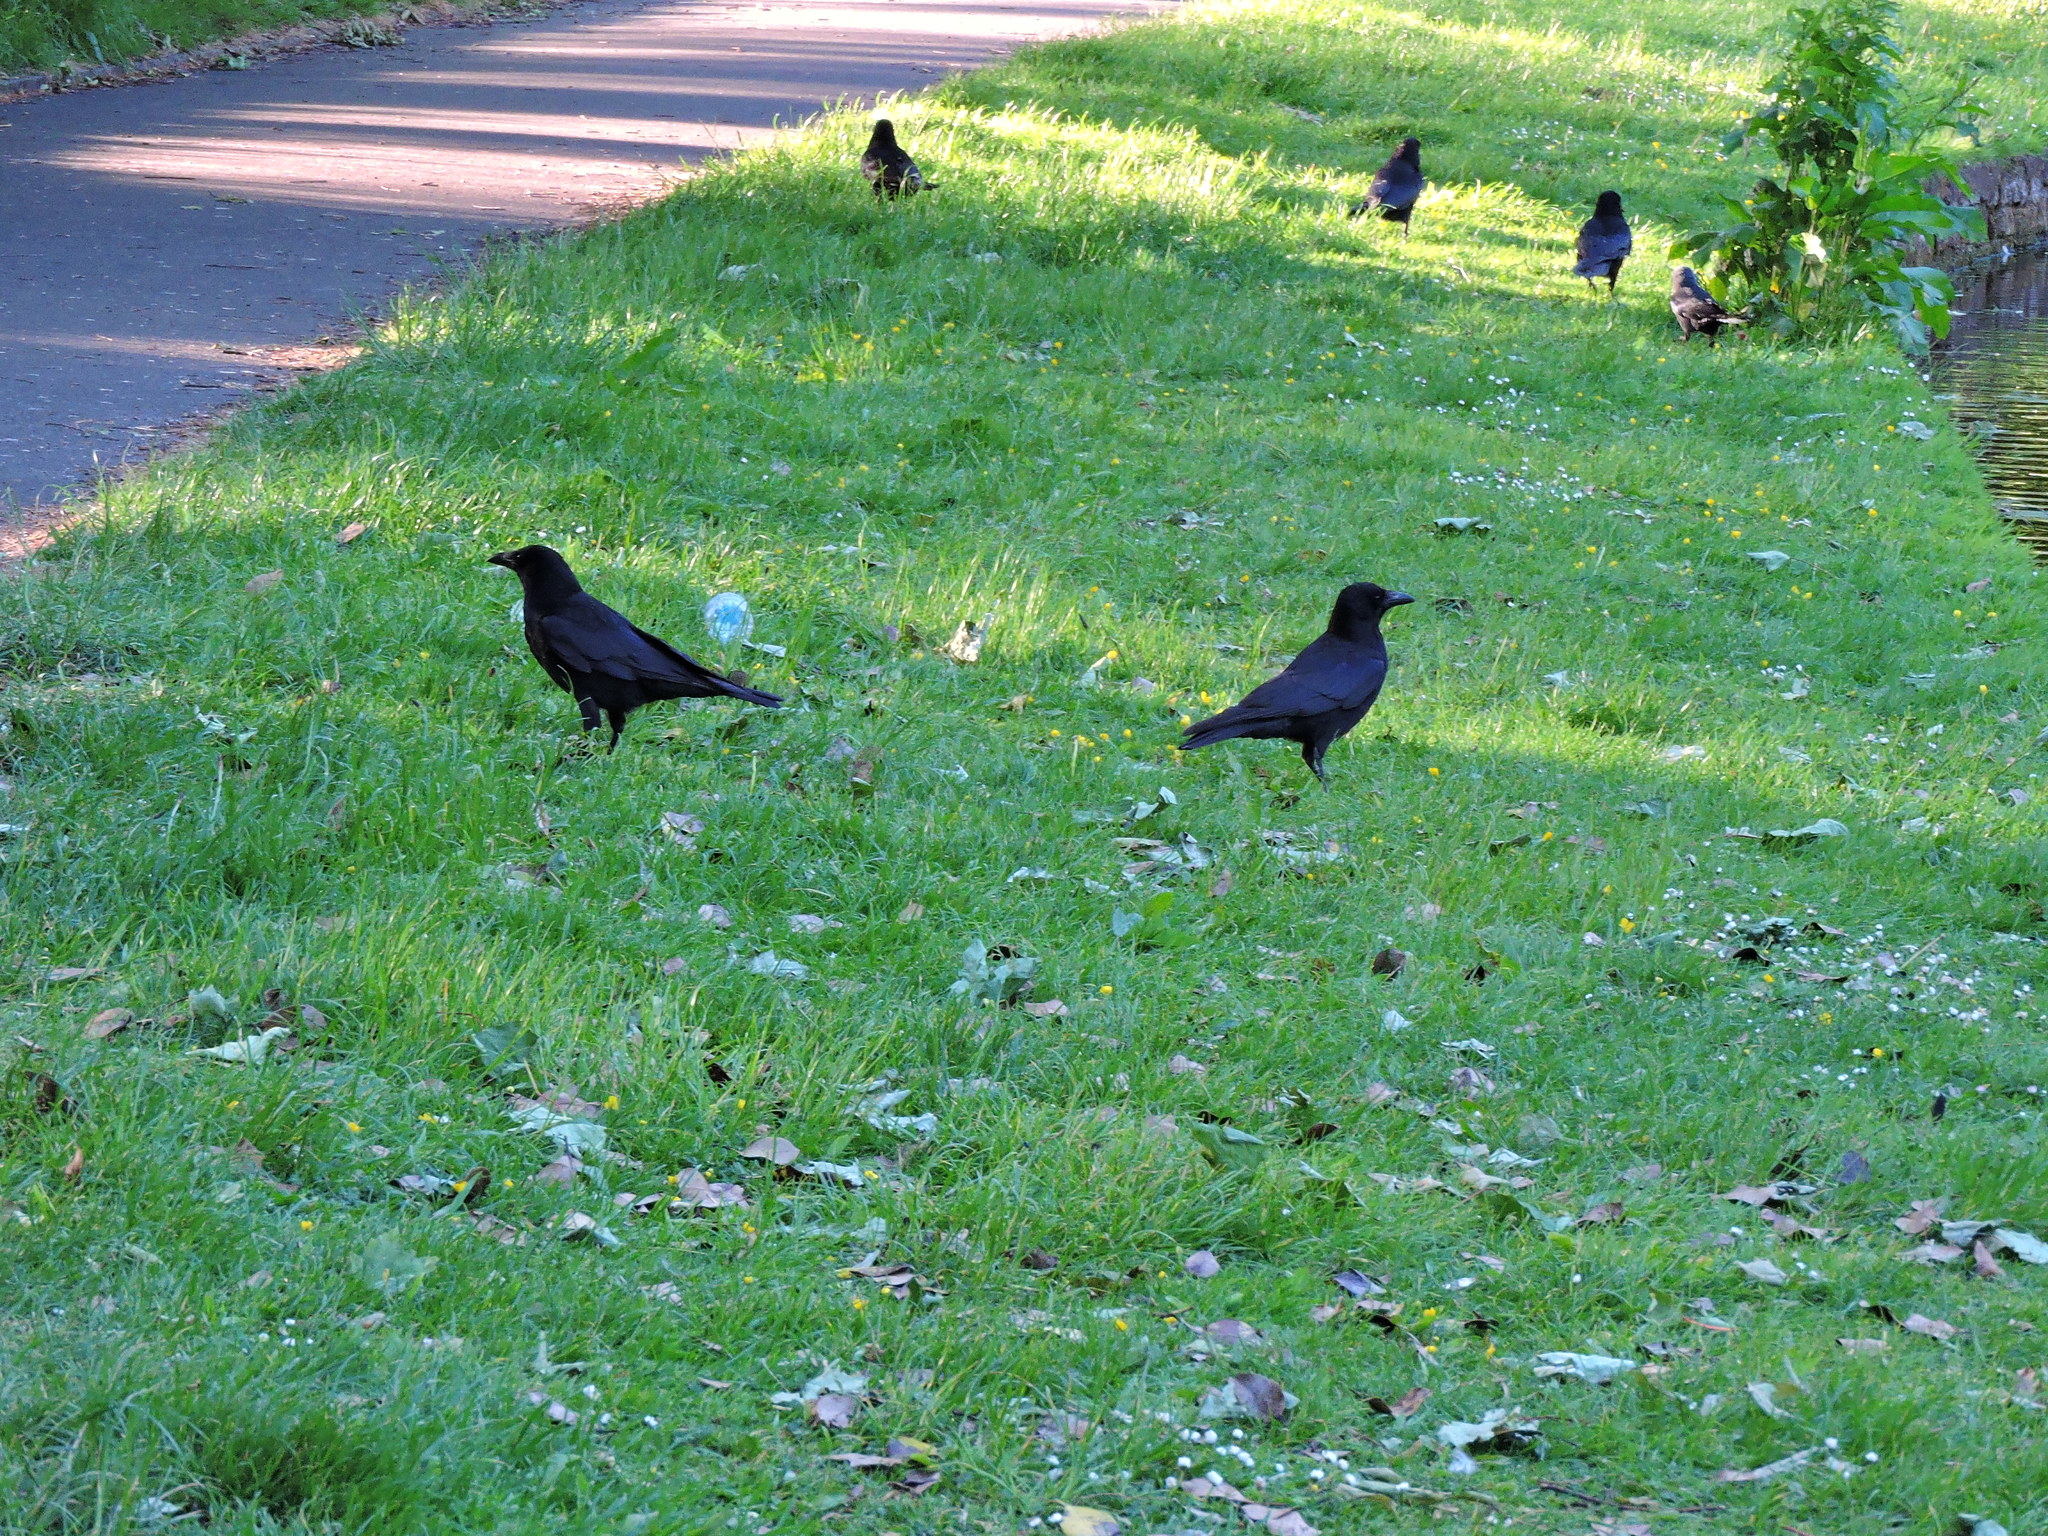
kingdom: Animalia
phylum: Chordata
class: Aves
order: Passeriformes
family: Corvidae
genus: Corvus
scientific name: Corvus corone
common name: Carrion crow
